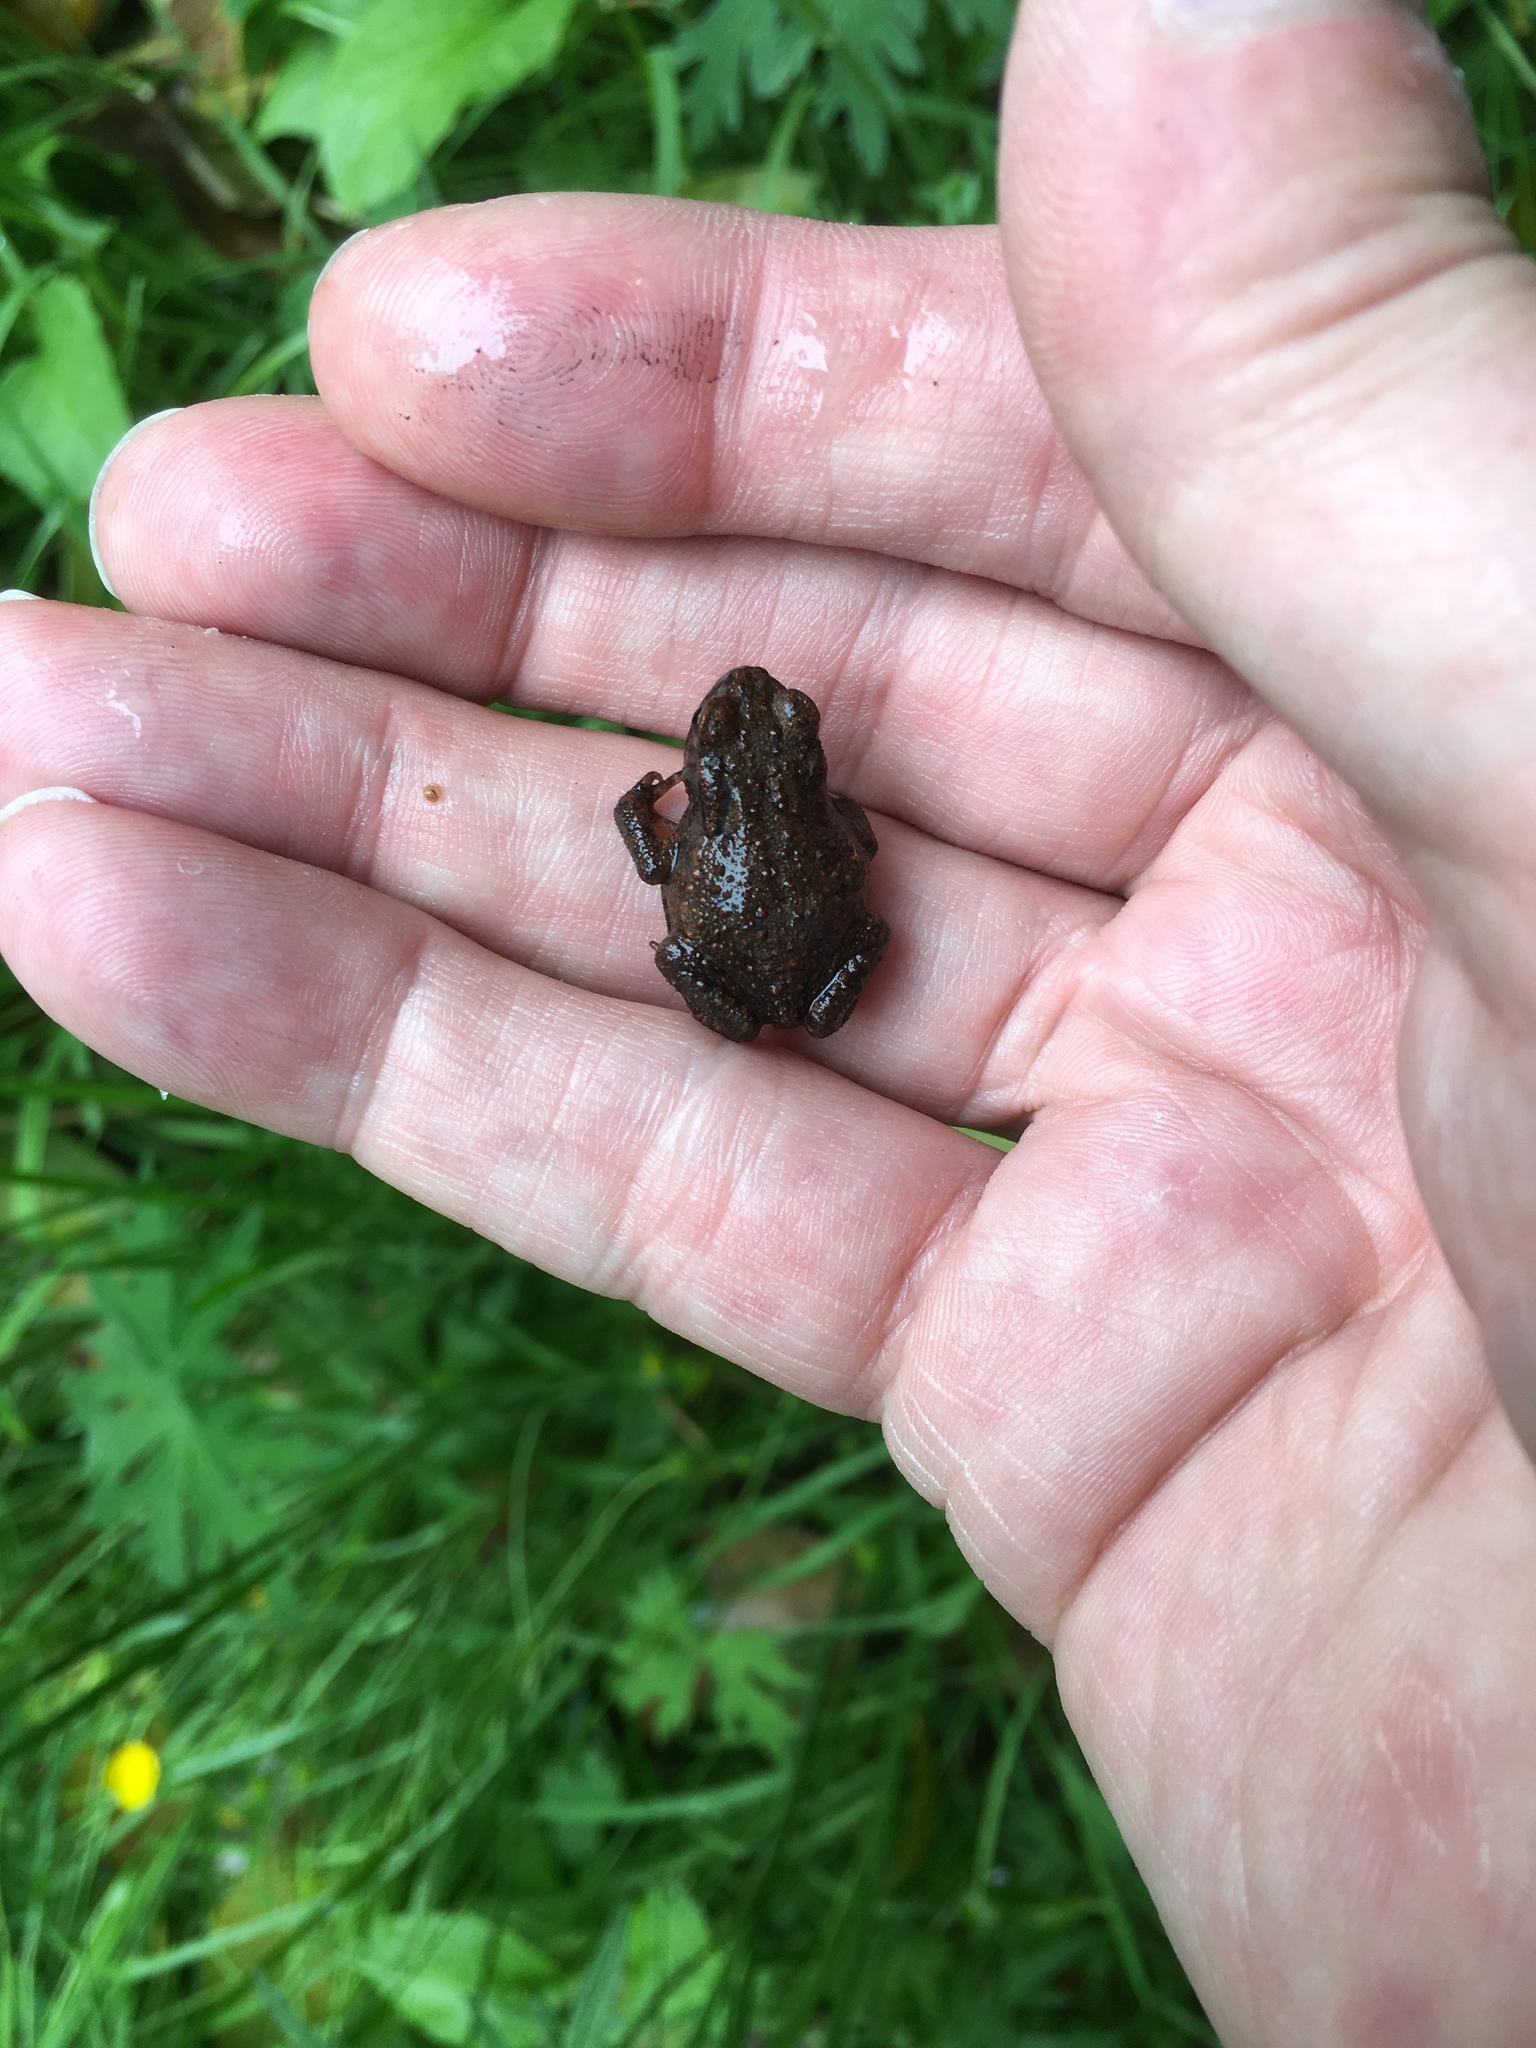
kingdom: Animalia
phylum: Chordata
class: Amphibia
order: Anura
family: Bufonidae
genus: Bufo
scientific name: Bufo bufo
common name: Common toad
